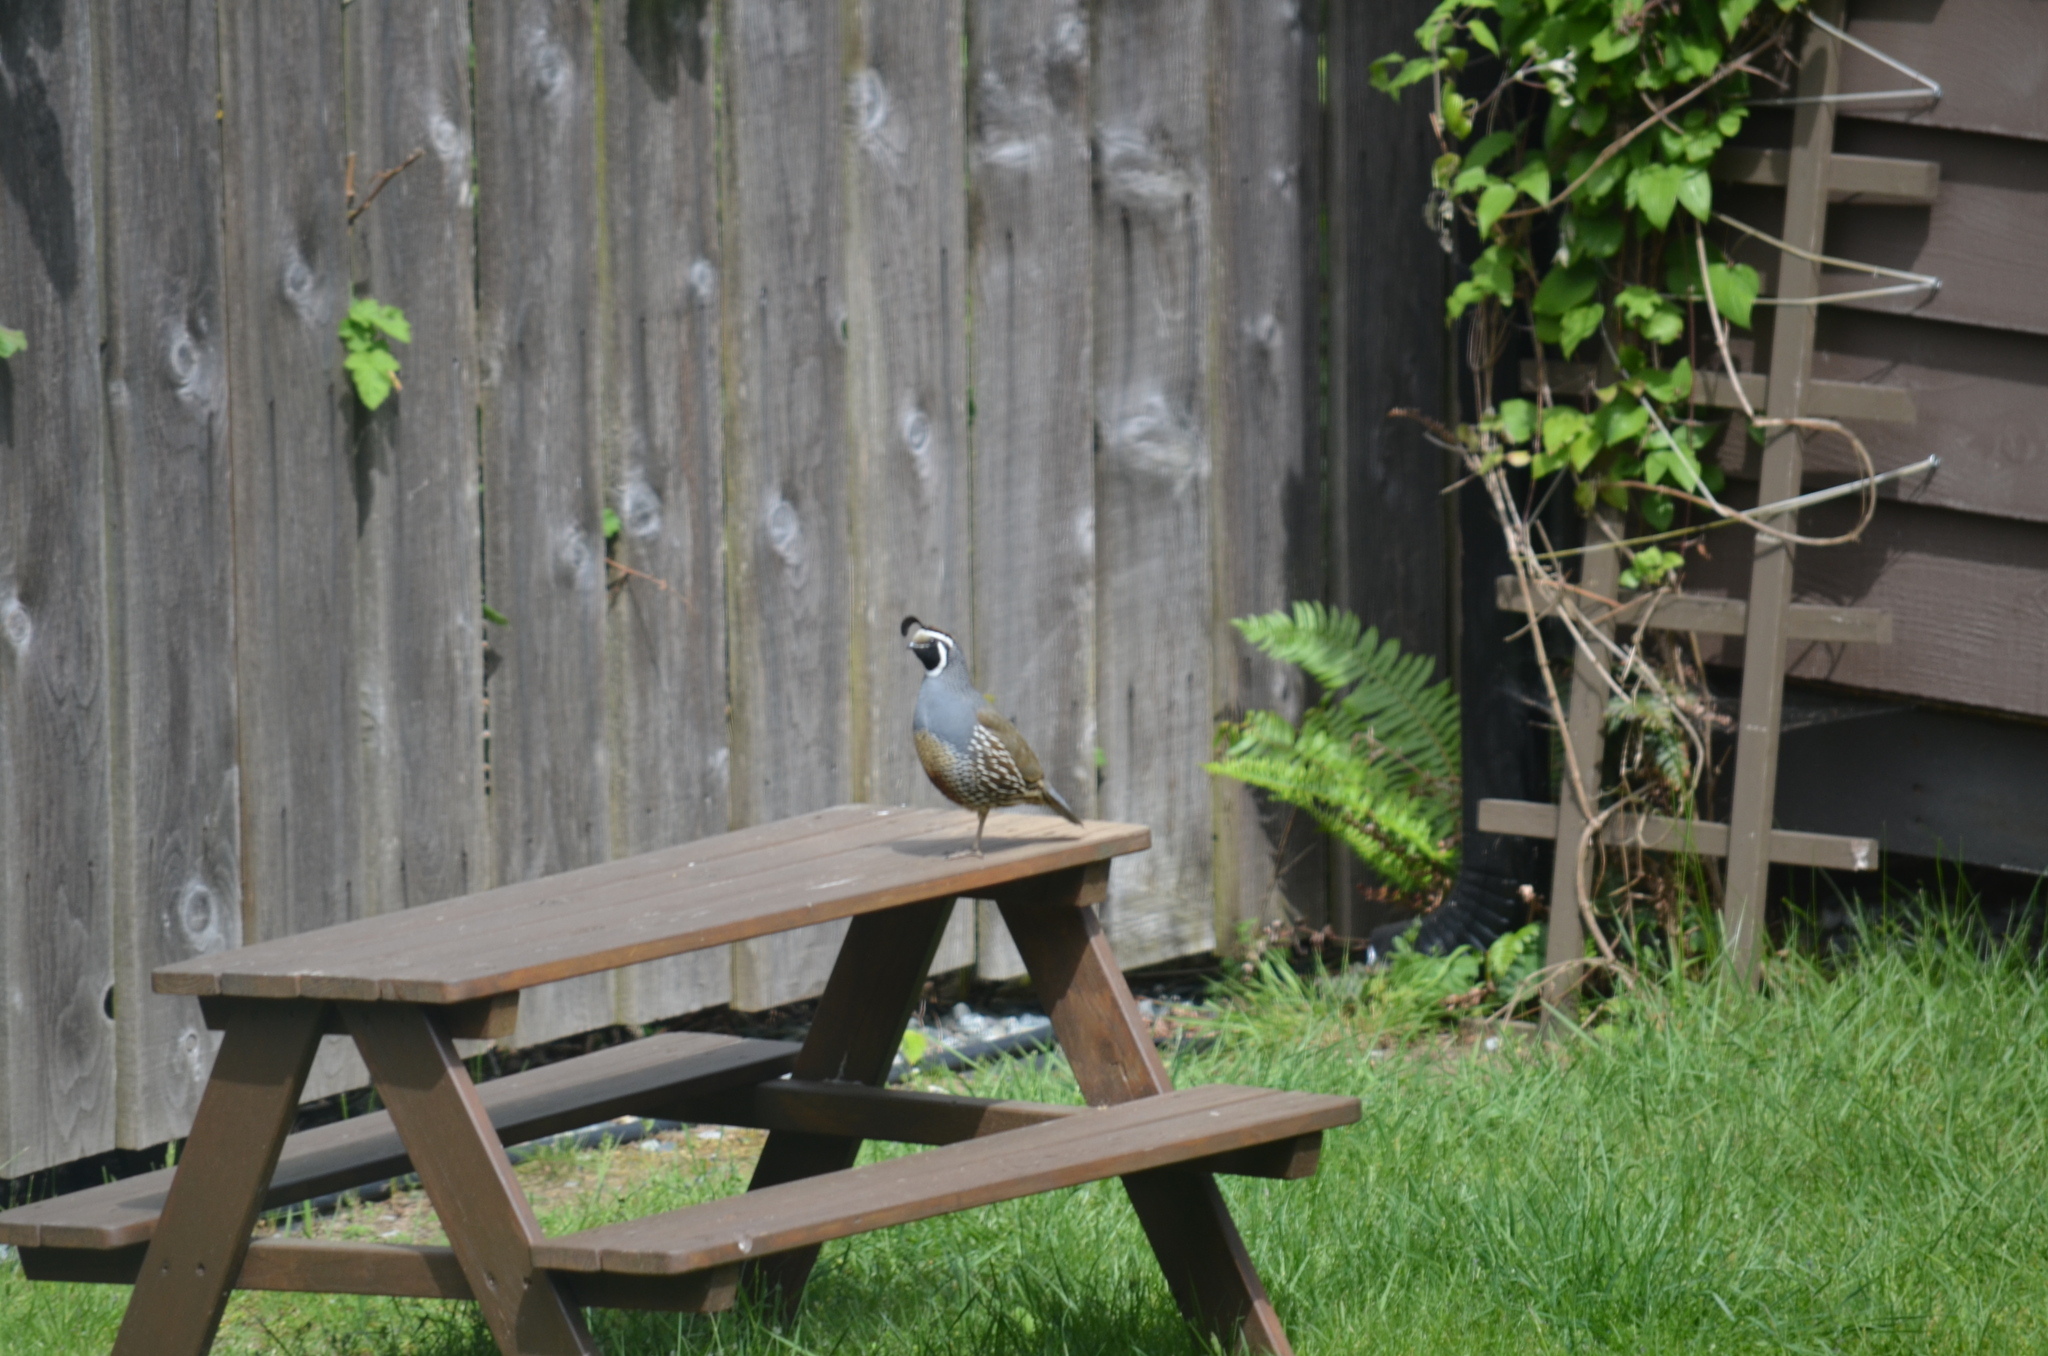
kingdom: Animalia
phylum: Chordata
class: Aves
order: Galliformes
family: Odontophoridae
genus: Callipepla
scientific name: Callipepla californica
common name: California quail
